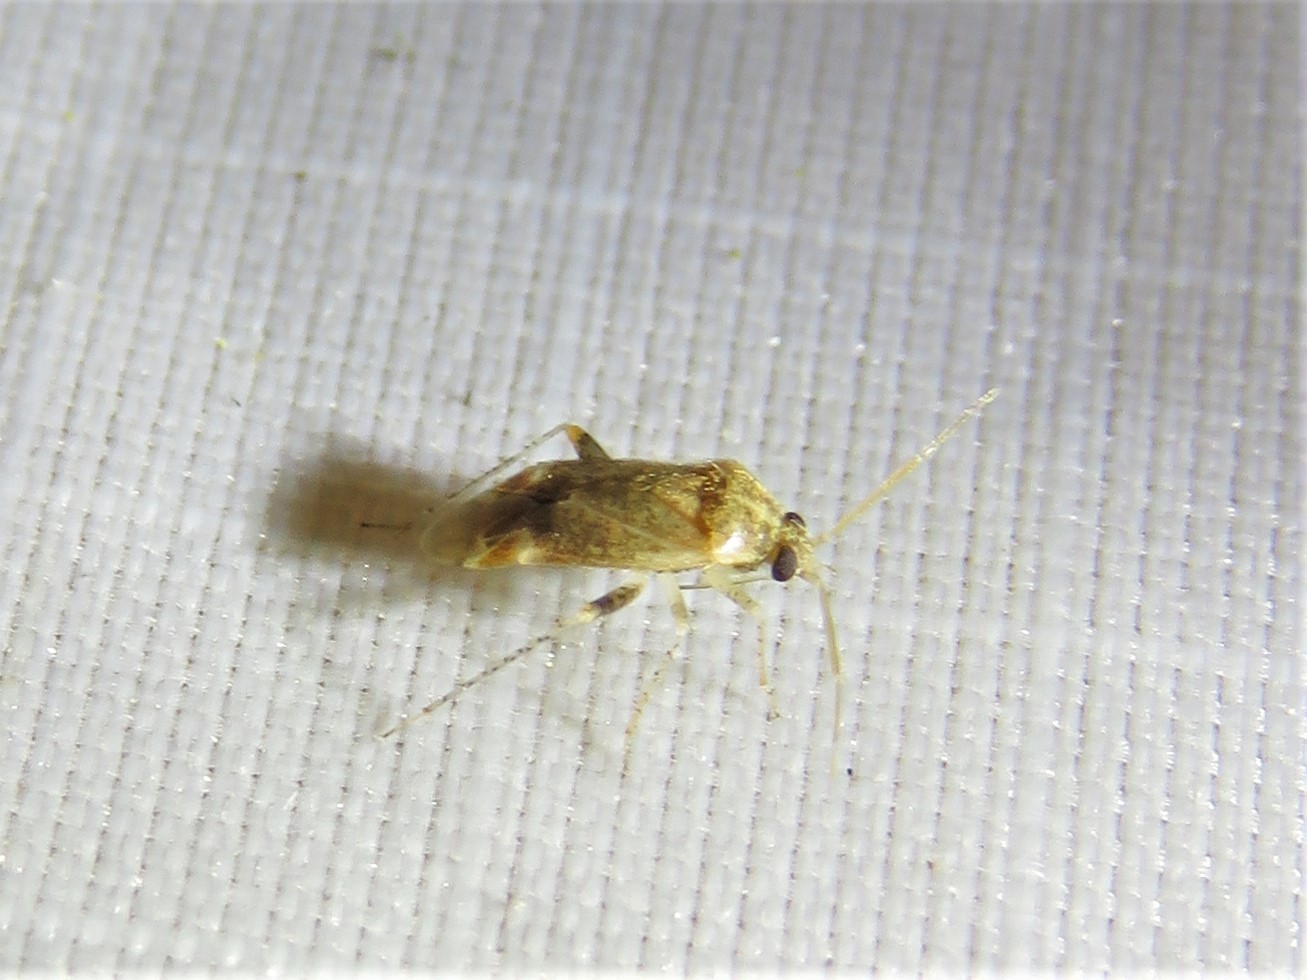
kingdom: Animalia
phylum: Arthropoda
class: Insecta
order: Hemiptera
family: Miridae
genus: Hamatophylus
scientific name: Hamatophylus guttulosus
